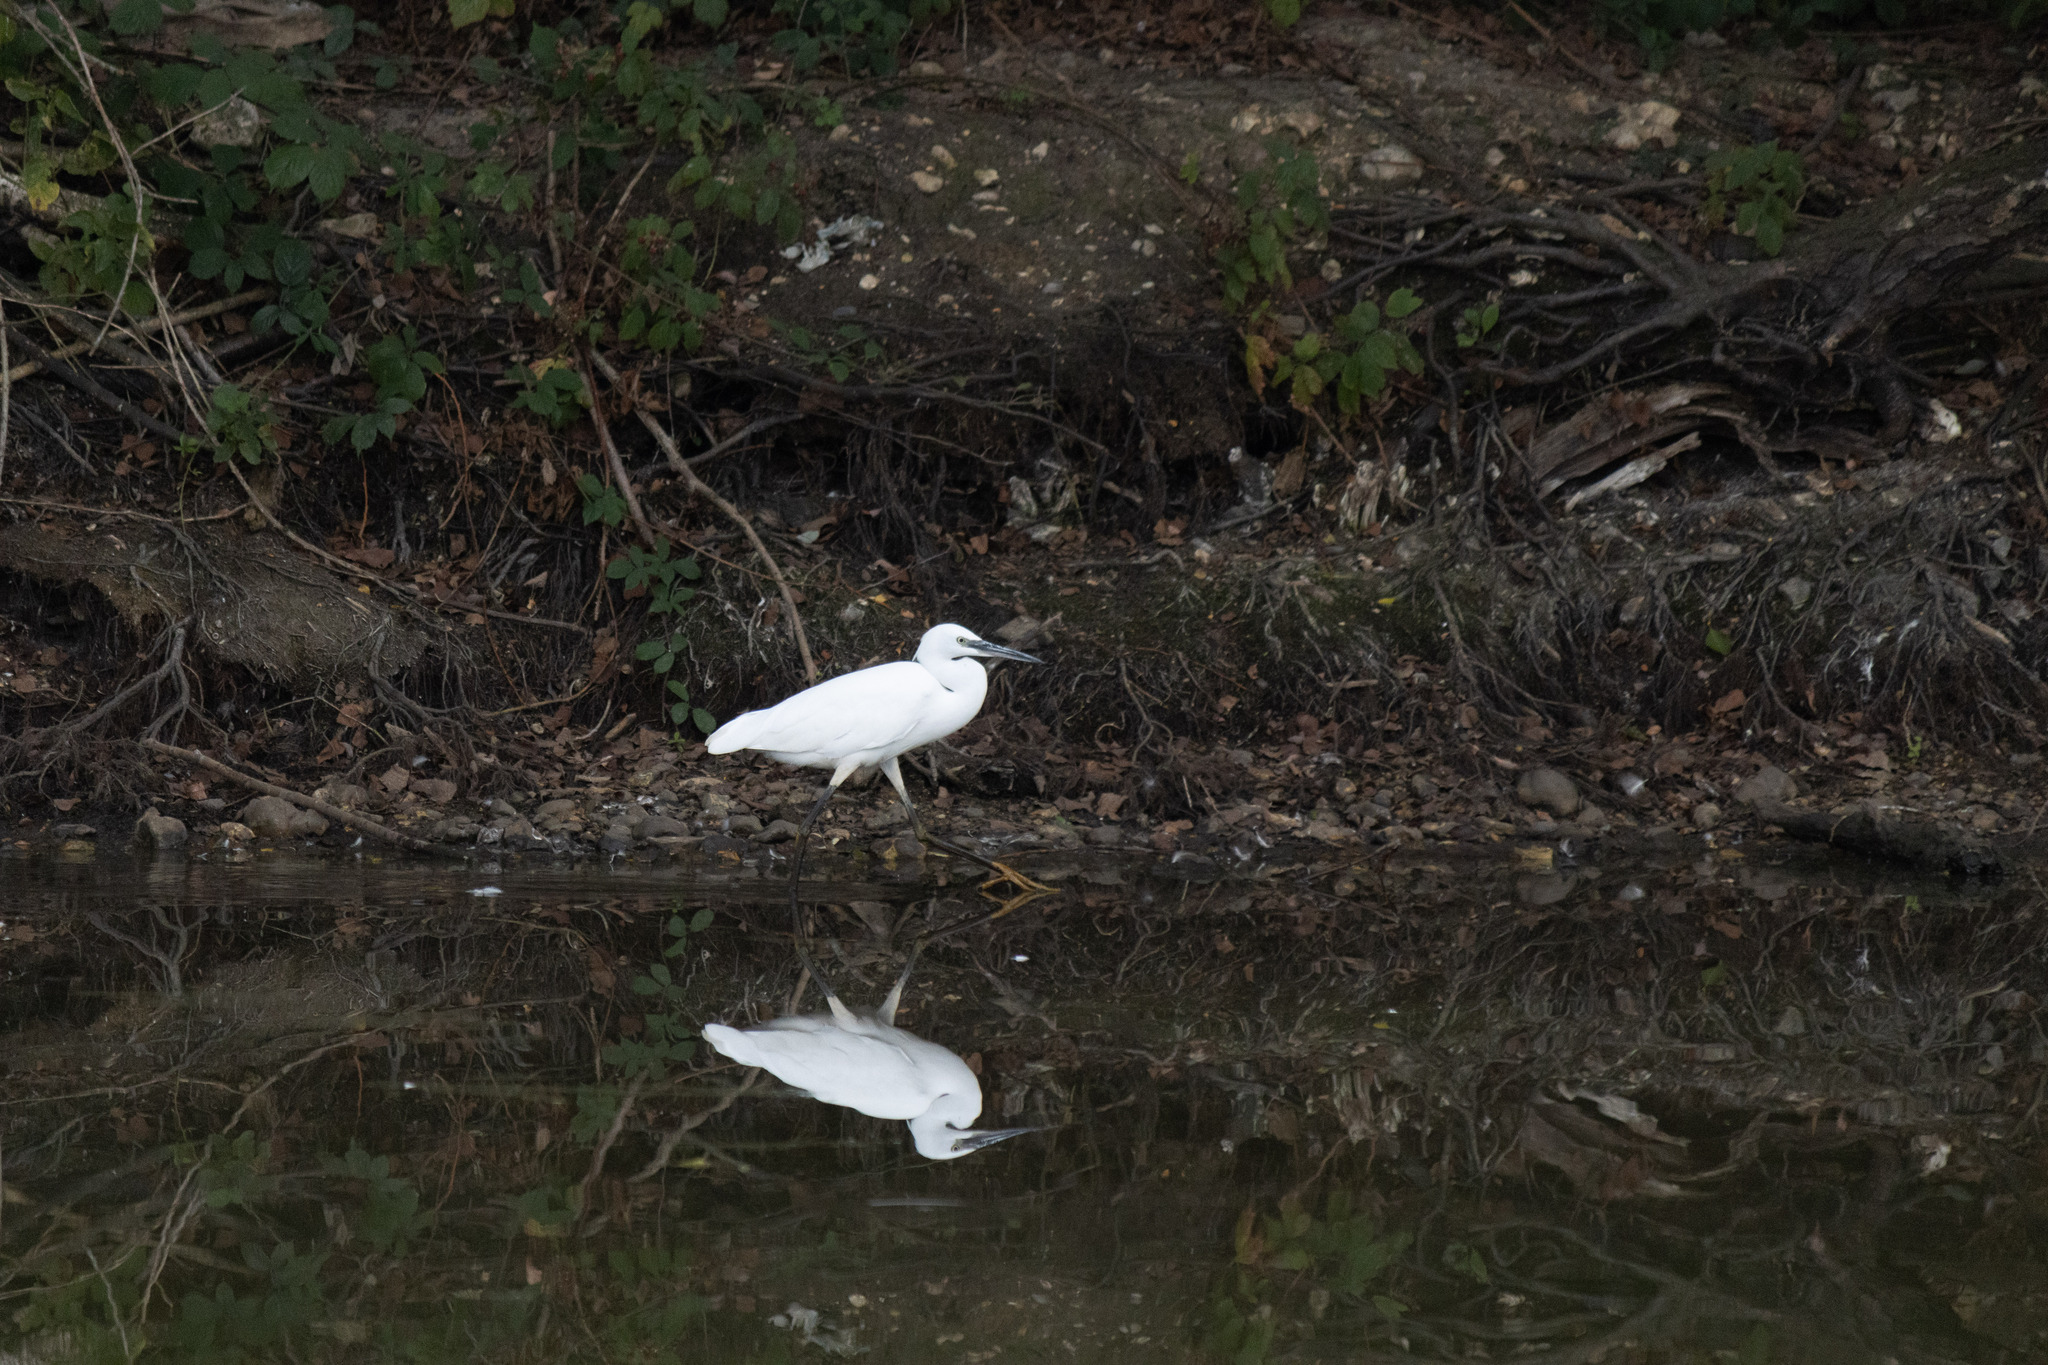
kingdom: Animalia
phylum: Chordata
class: Aves
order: Pelecaniformes
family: Ardeidae
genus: Egretta
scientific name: Egretta garzetta
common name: Little egret
